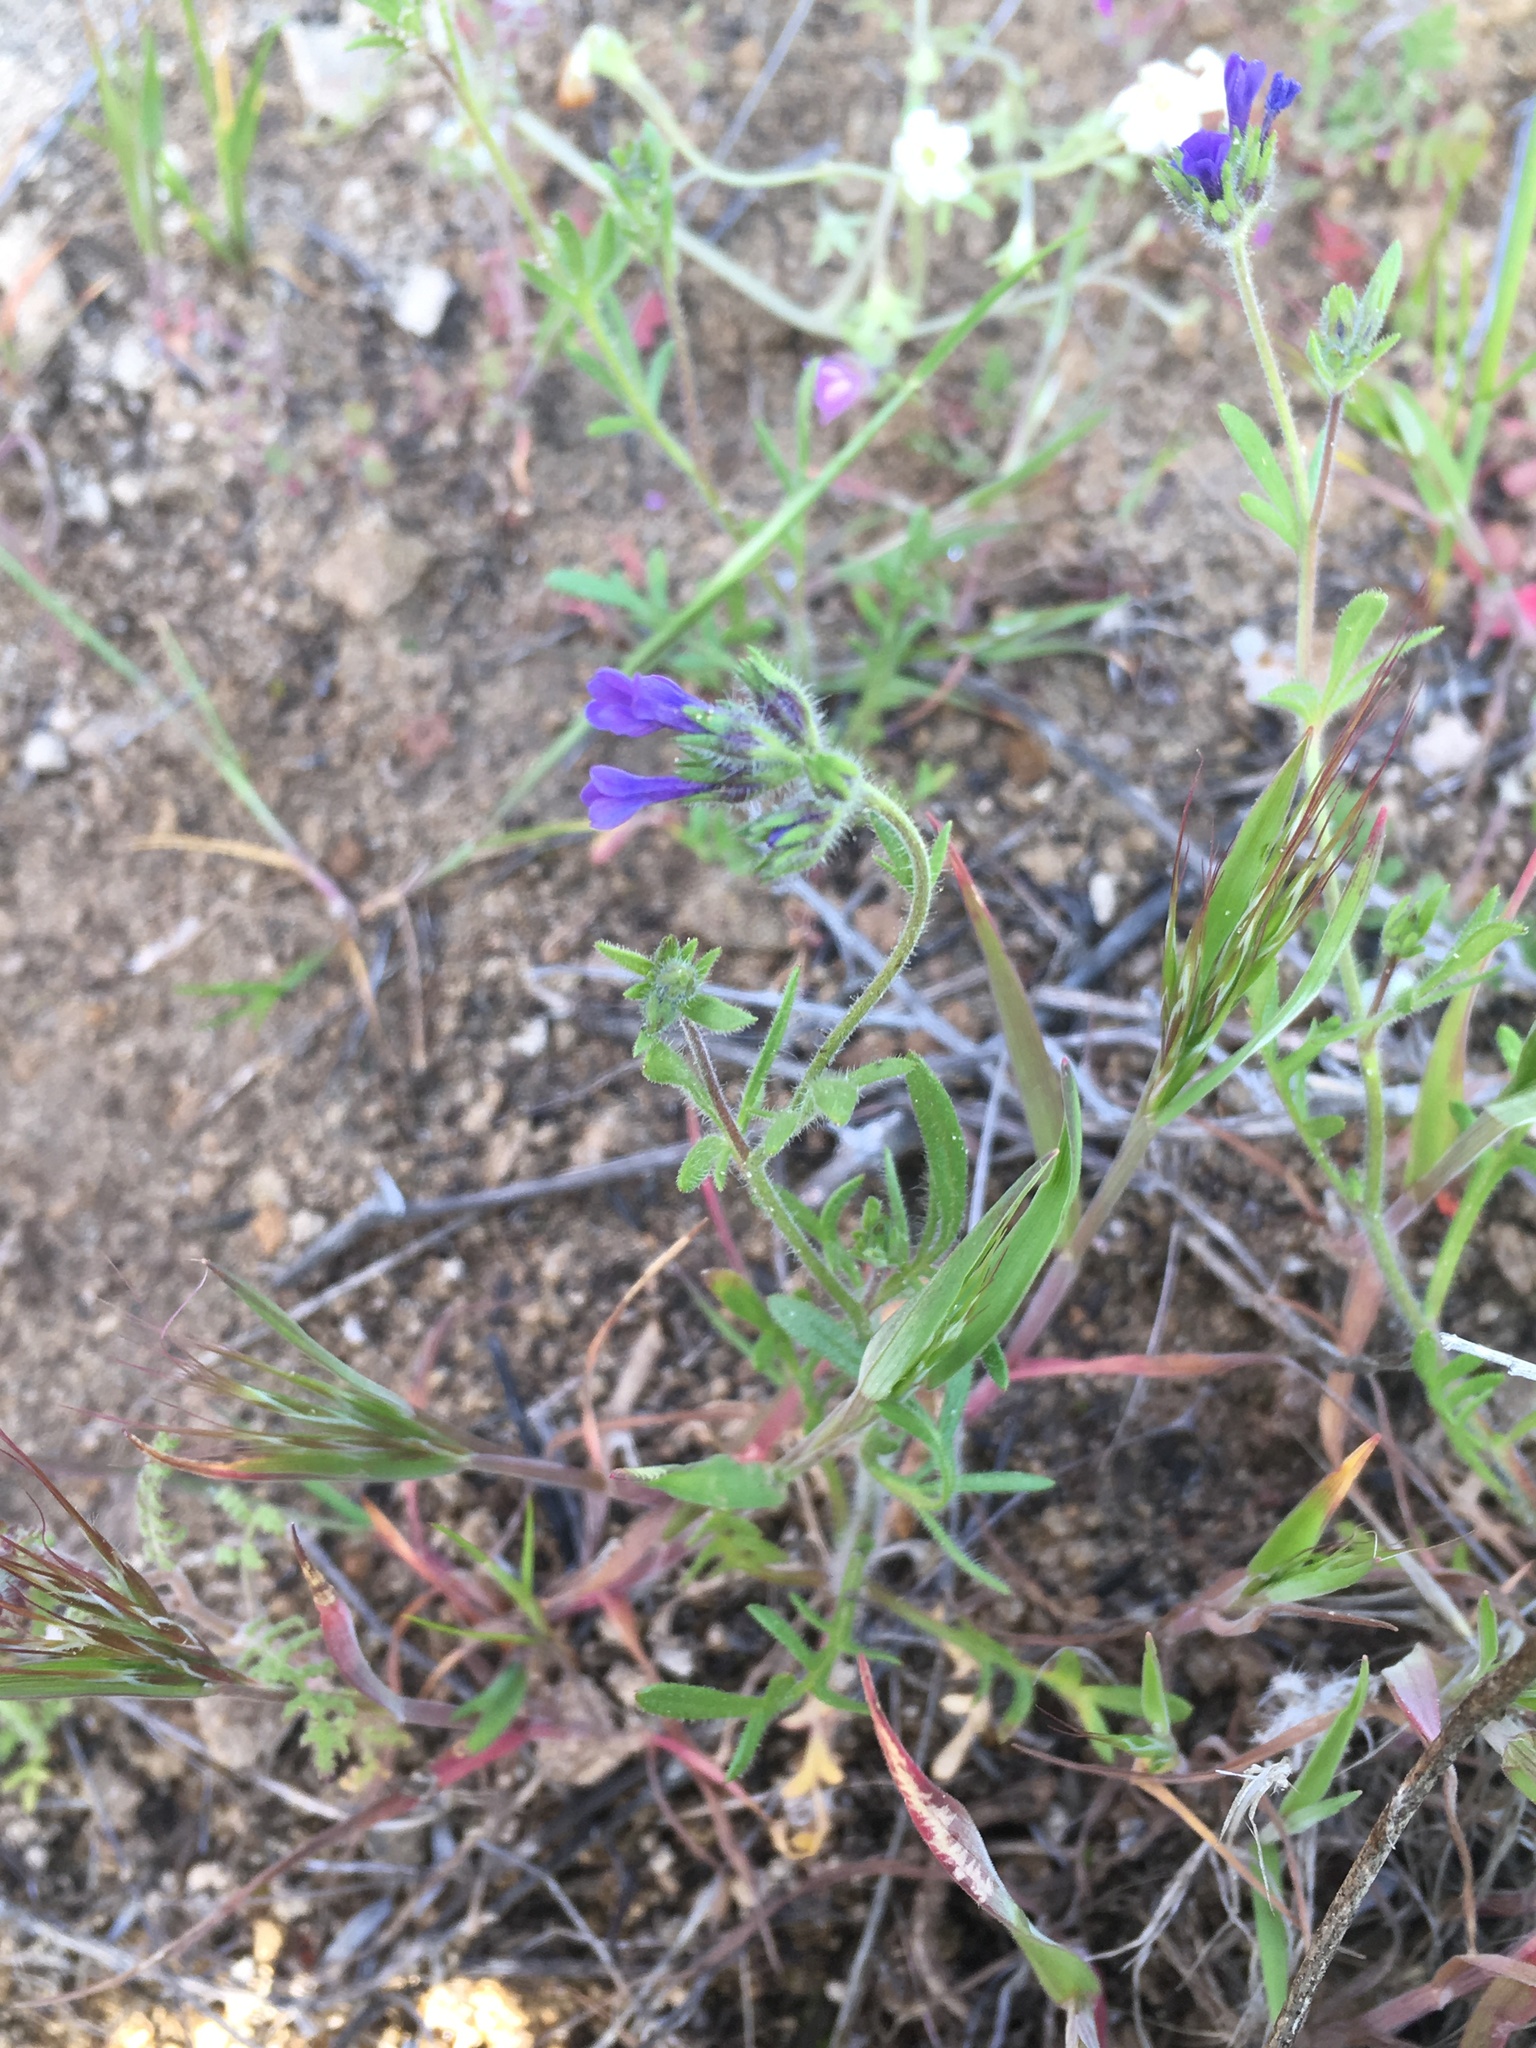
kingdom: Plantae
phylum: Tracheophyta
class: Magnoliopsida
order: Ericales
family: Polemoniaceae
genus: Allophyllum
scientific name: Allophyllum gilioides
